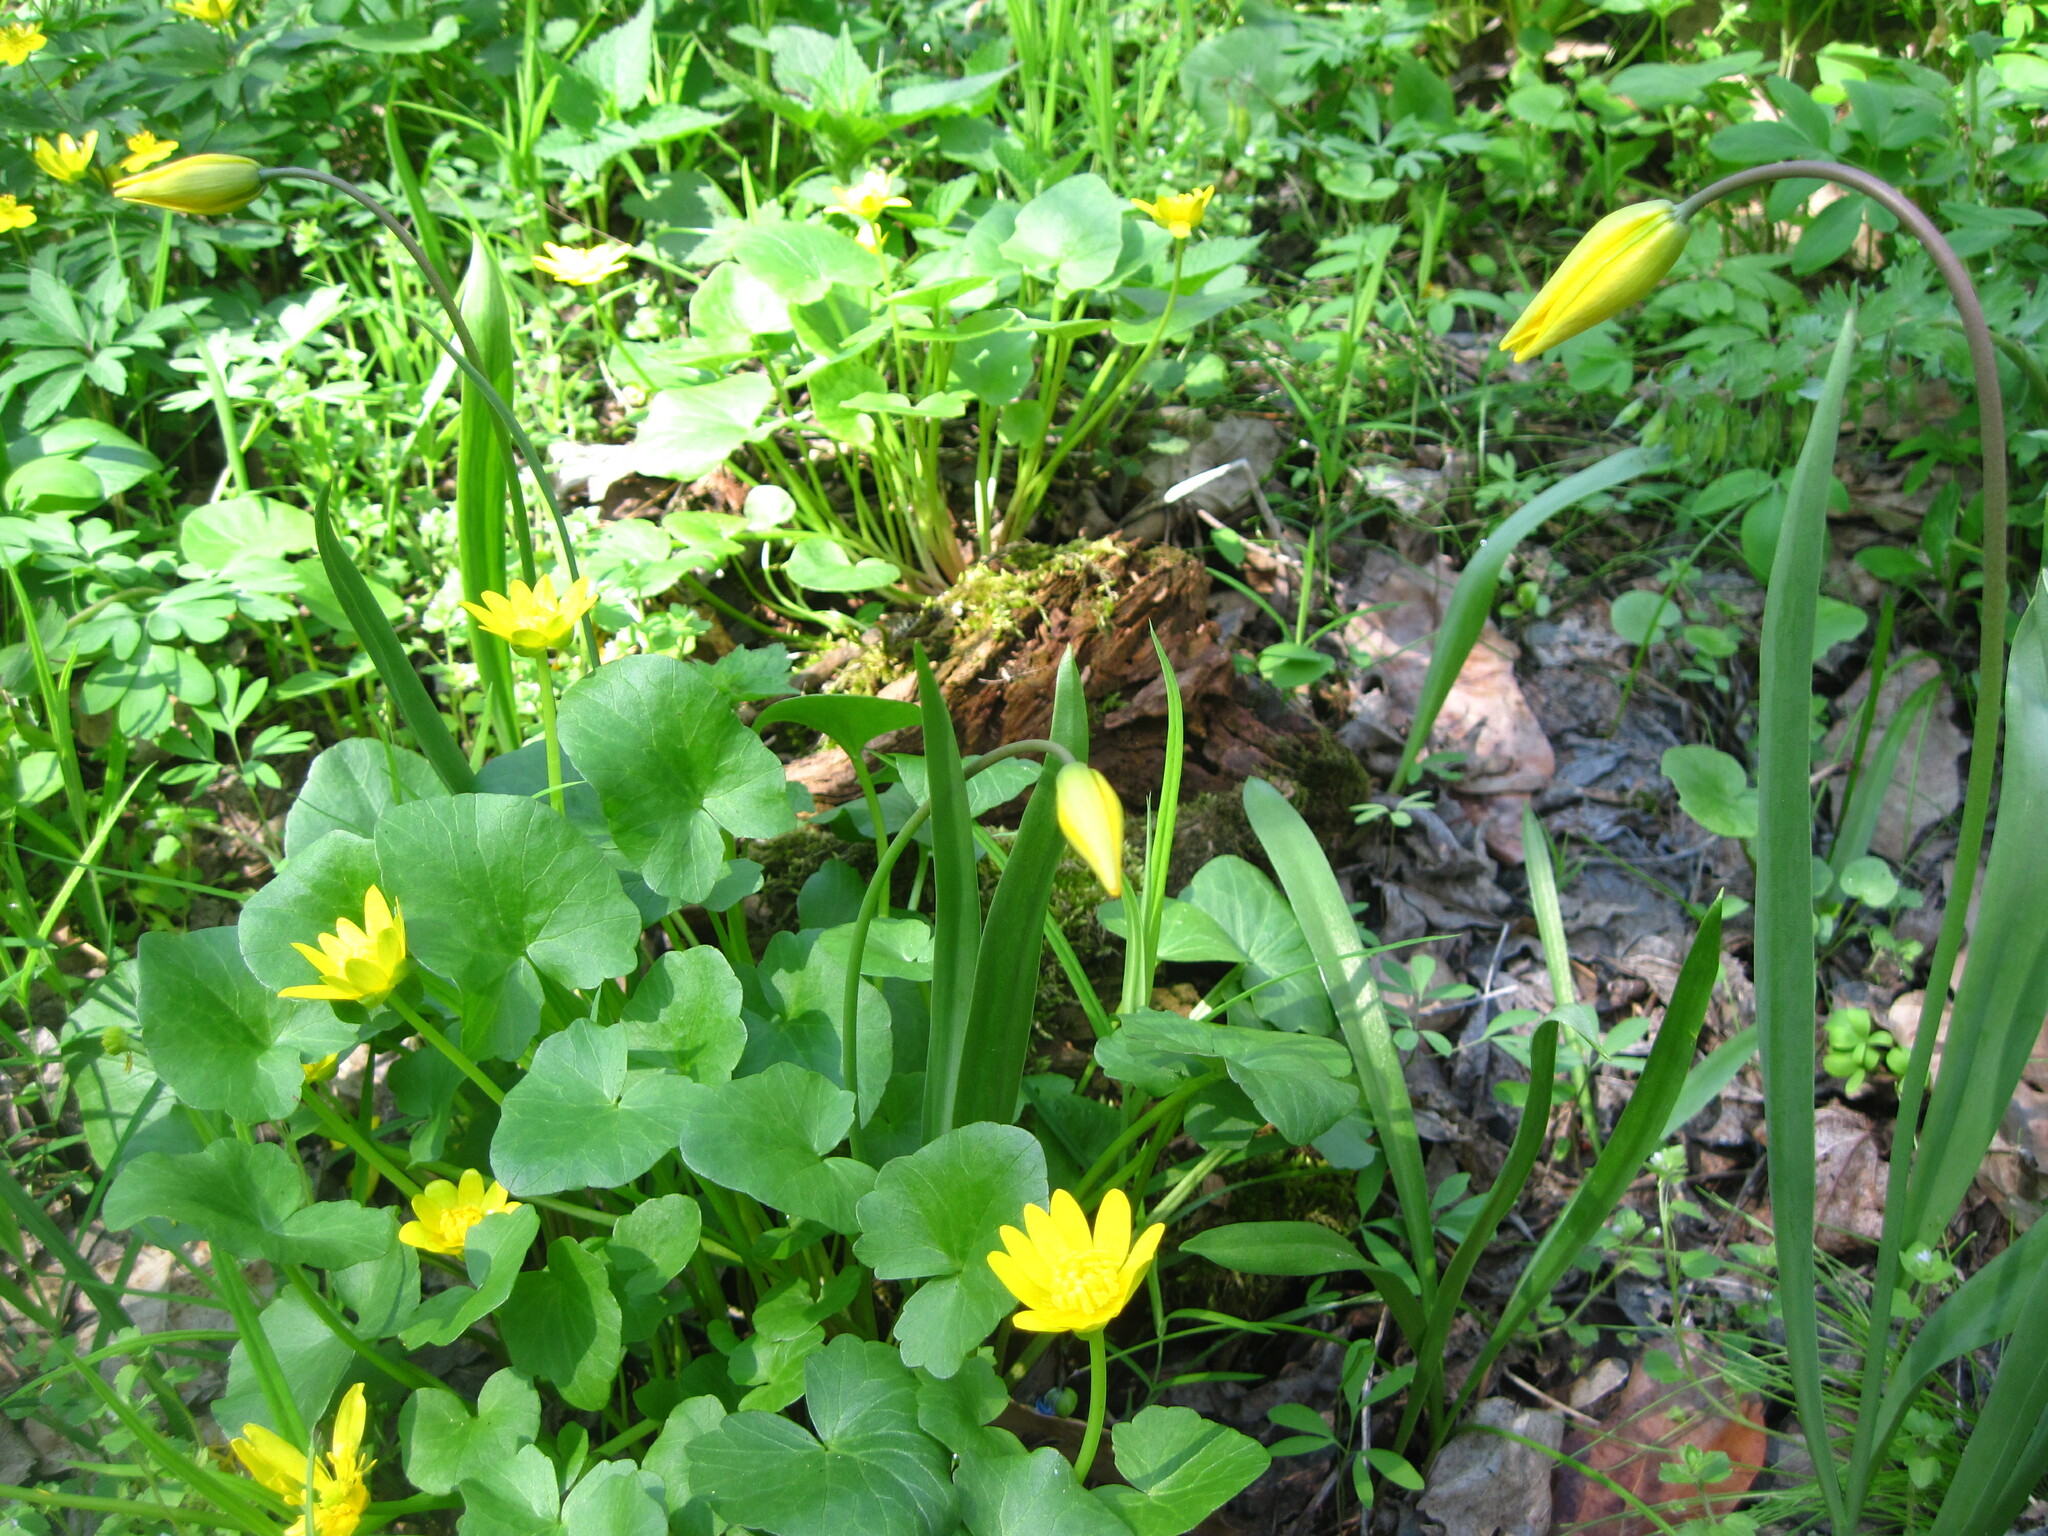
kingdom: Plantae
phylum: Tracheophyta
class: Magnoliopsida
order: Ranunculales
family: Ranunculaceae
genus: Ficaria
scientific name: Ficaria verna
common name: Lesser celandine
